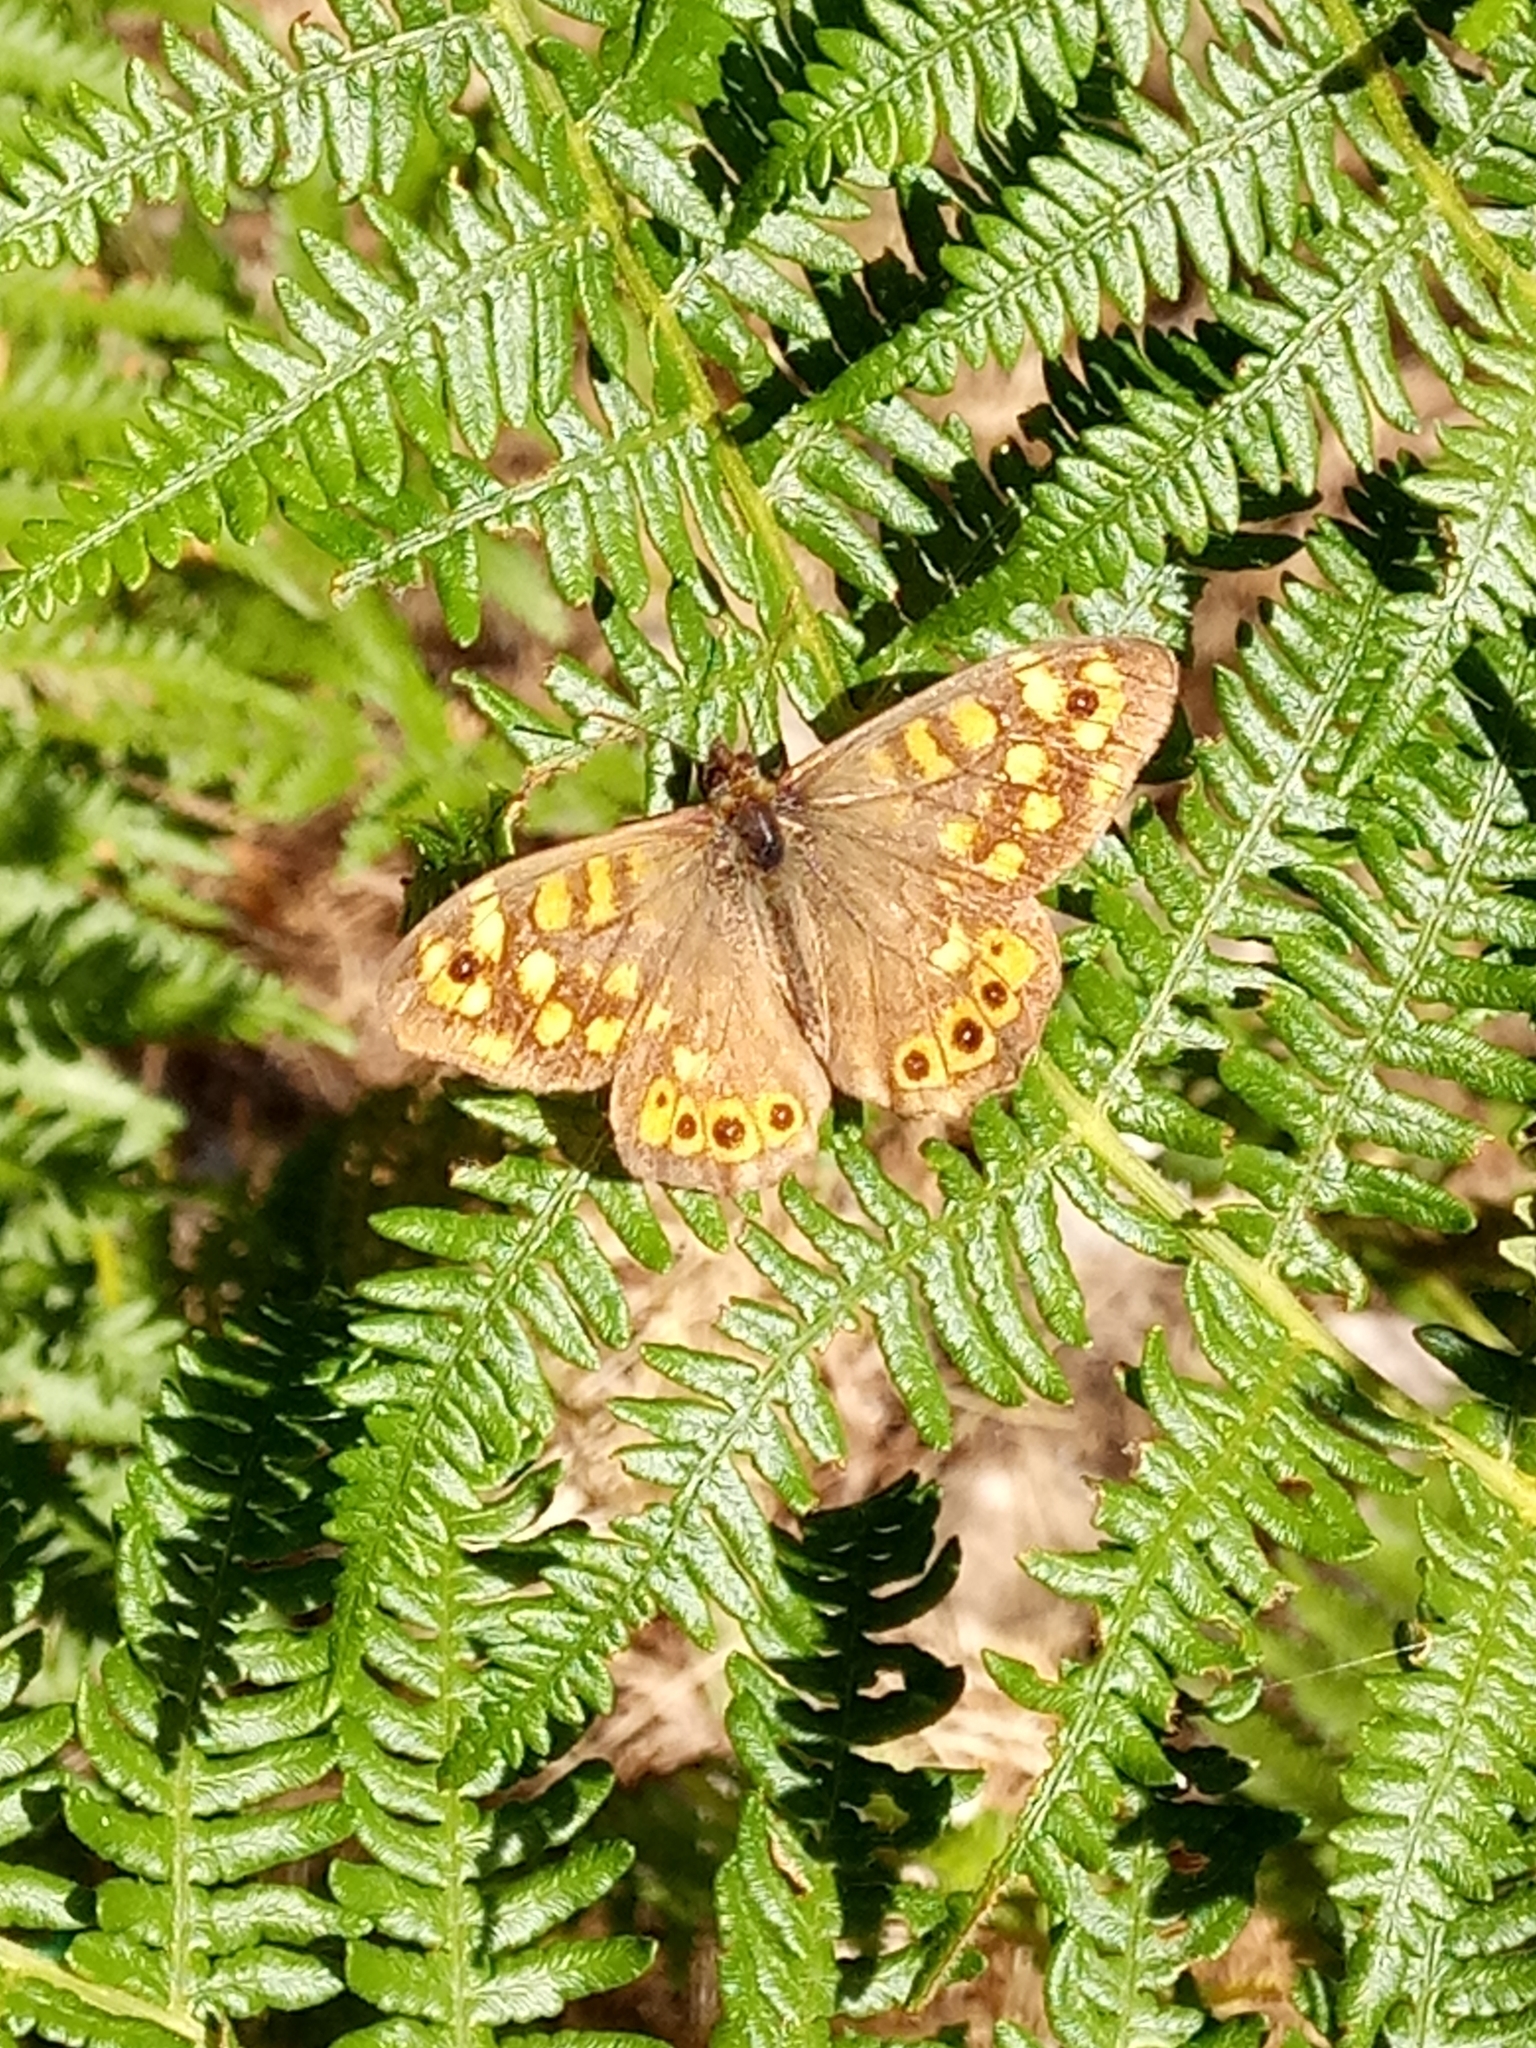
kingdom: Animalia
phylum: Arthropoda
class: Insecta
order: Lepidoptera
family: Nymphalidae
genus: Pararge
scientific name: Pararge aegeria
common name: Speckled wood
